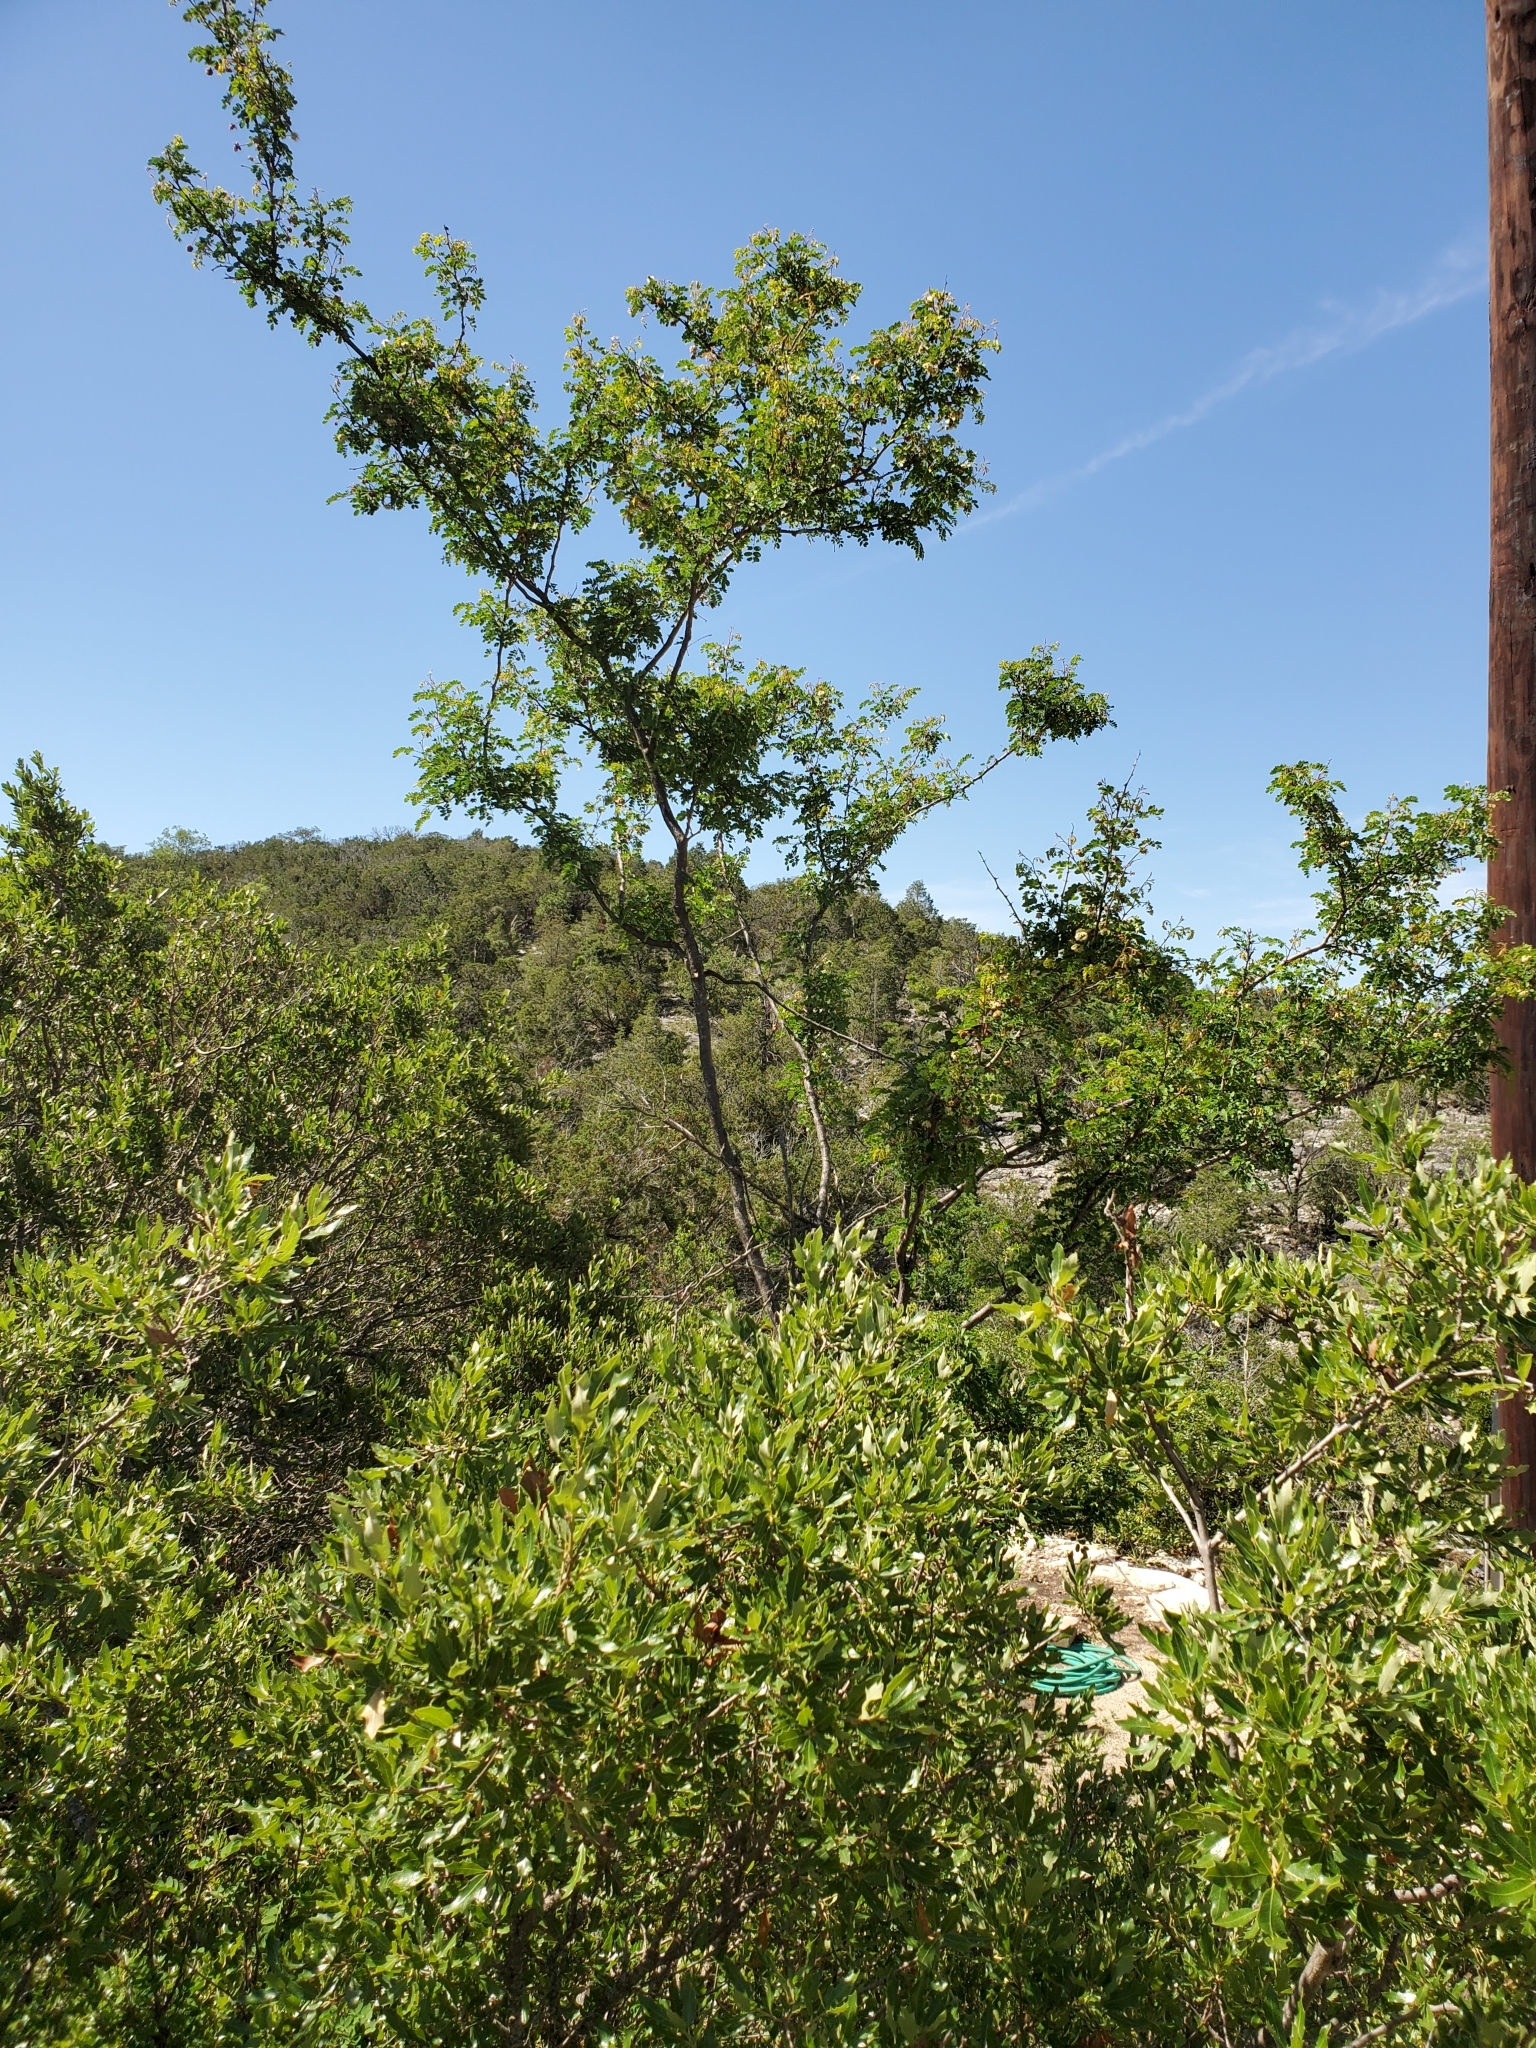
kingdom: Plantae
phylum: Tracheophyta
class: Magnoliopsida
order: Fabales
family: Fabaceae
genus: Senegalia
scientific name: Senegalia roemeriana
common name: Roemer's acacia
